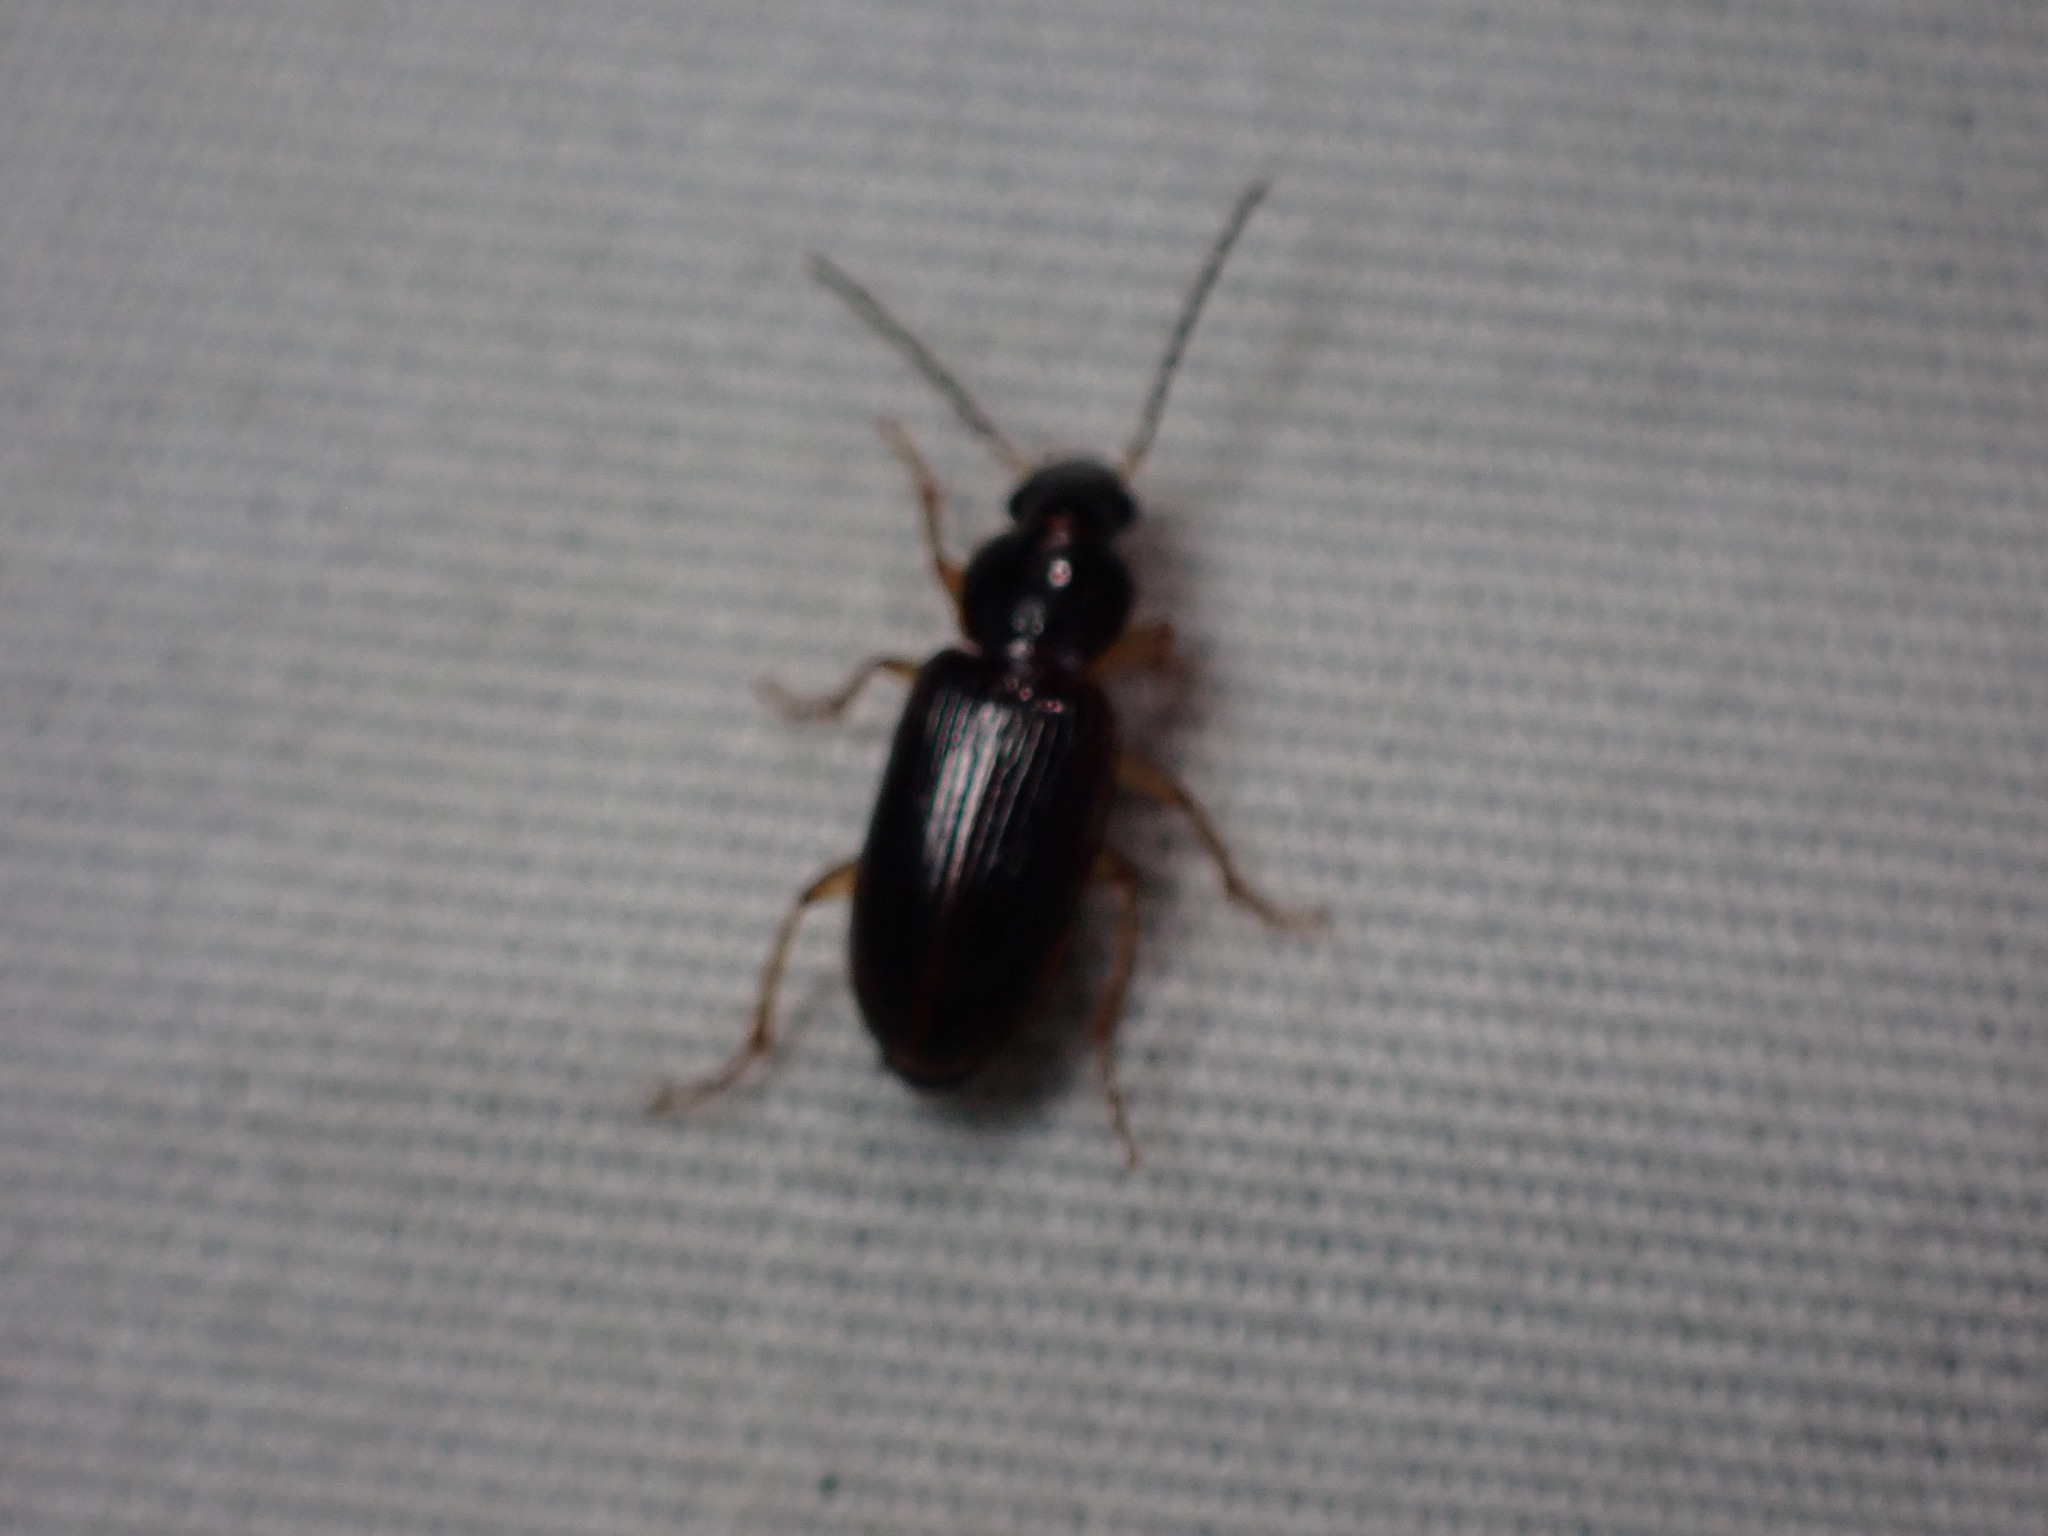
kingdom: Animalia
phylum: Arthropoda
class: Insecta
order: Coleoptera
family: Carabidae
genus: Stenolophus
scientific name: Stenolophus ochropezus
